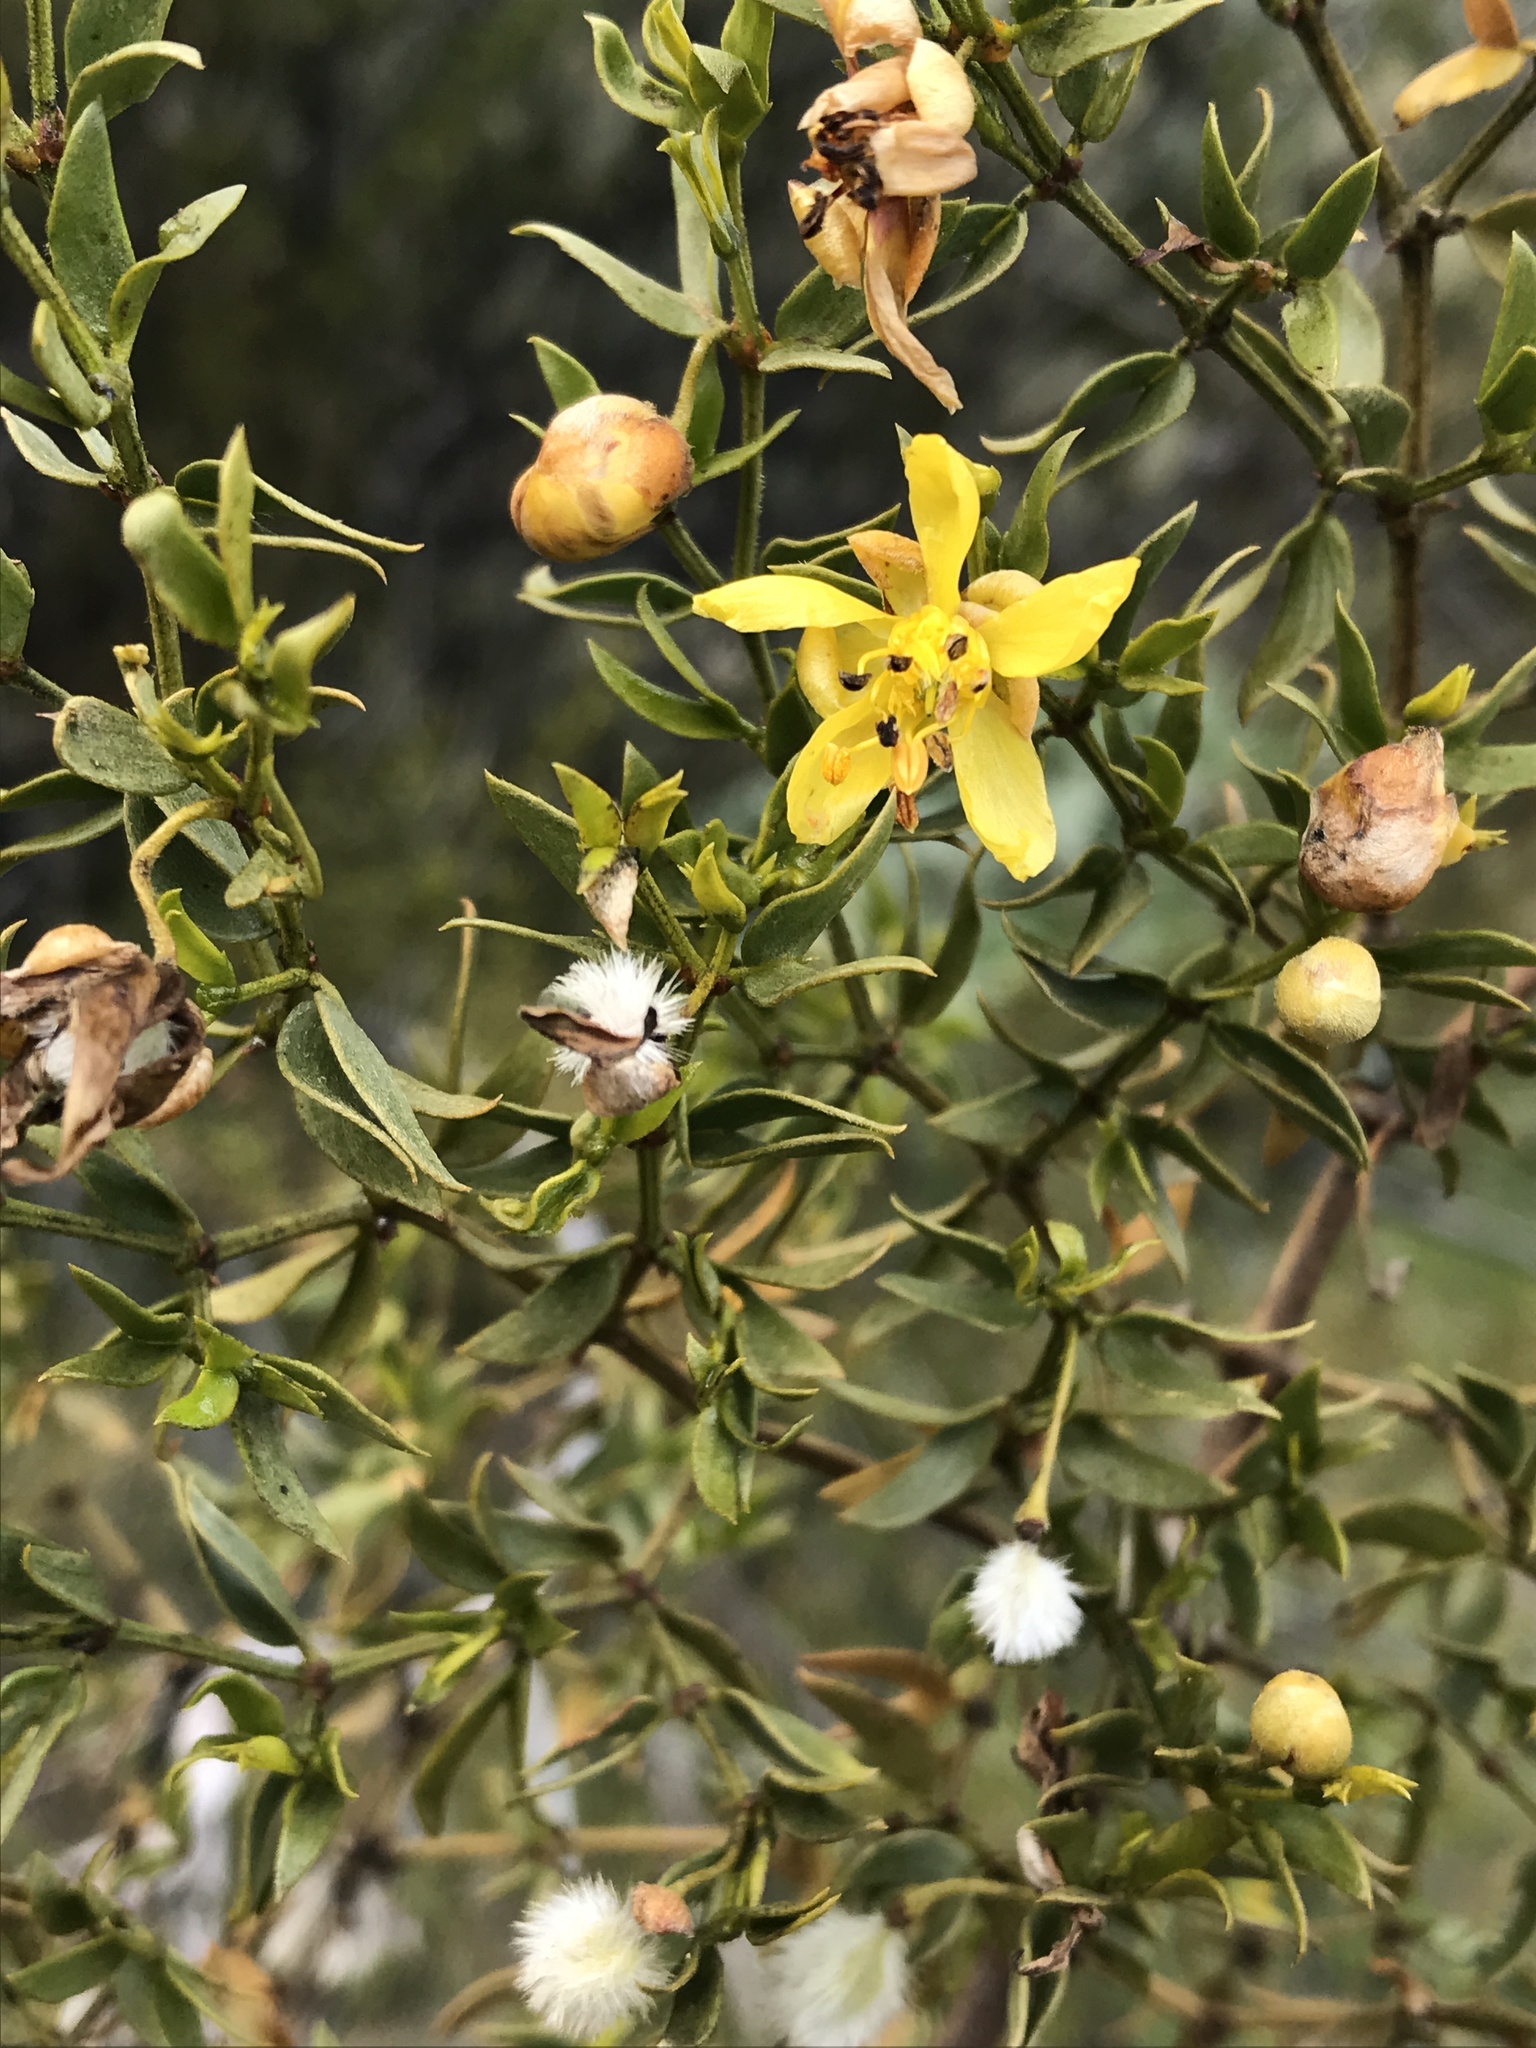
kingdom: Plantae
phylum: Tracheophyta
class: Magnoliopsida
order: Zygophyllales
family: Zygophyllaceae
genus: Larrea
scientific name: Larrea tridentata
